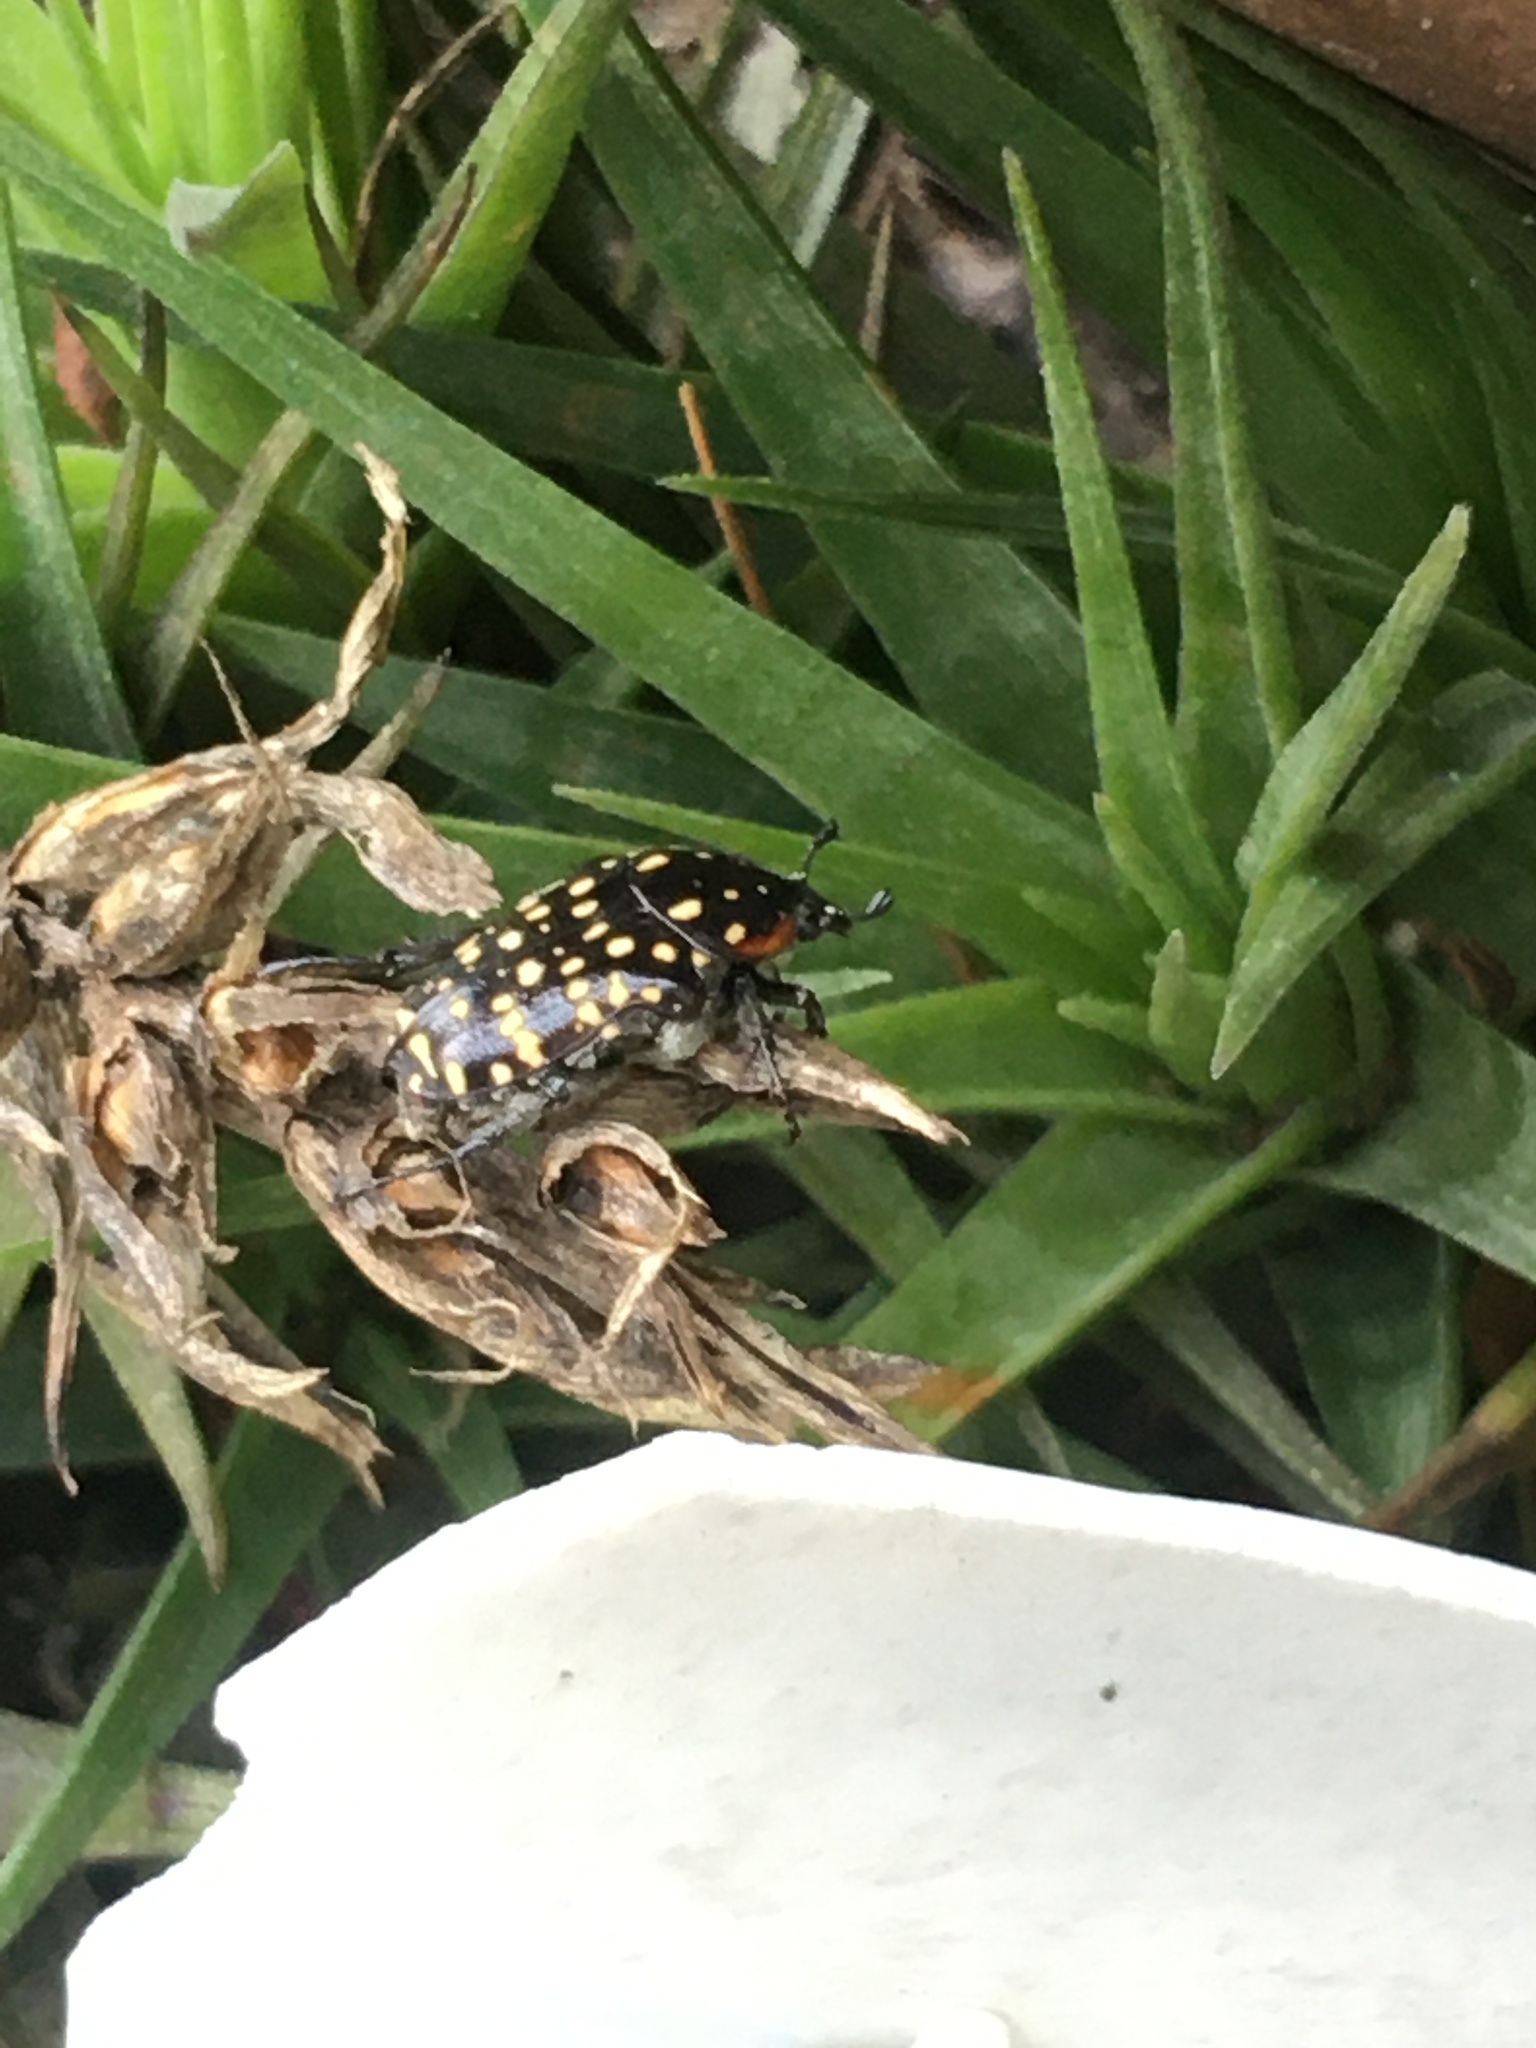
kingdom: Animalia
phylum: Arthropoda
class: Insecta
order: Coleoptera
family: Scarabaeidae
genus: Oxythyrea
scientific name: Oxythyrea
